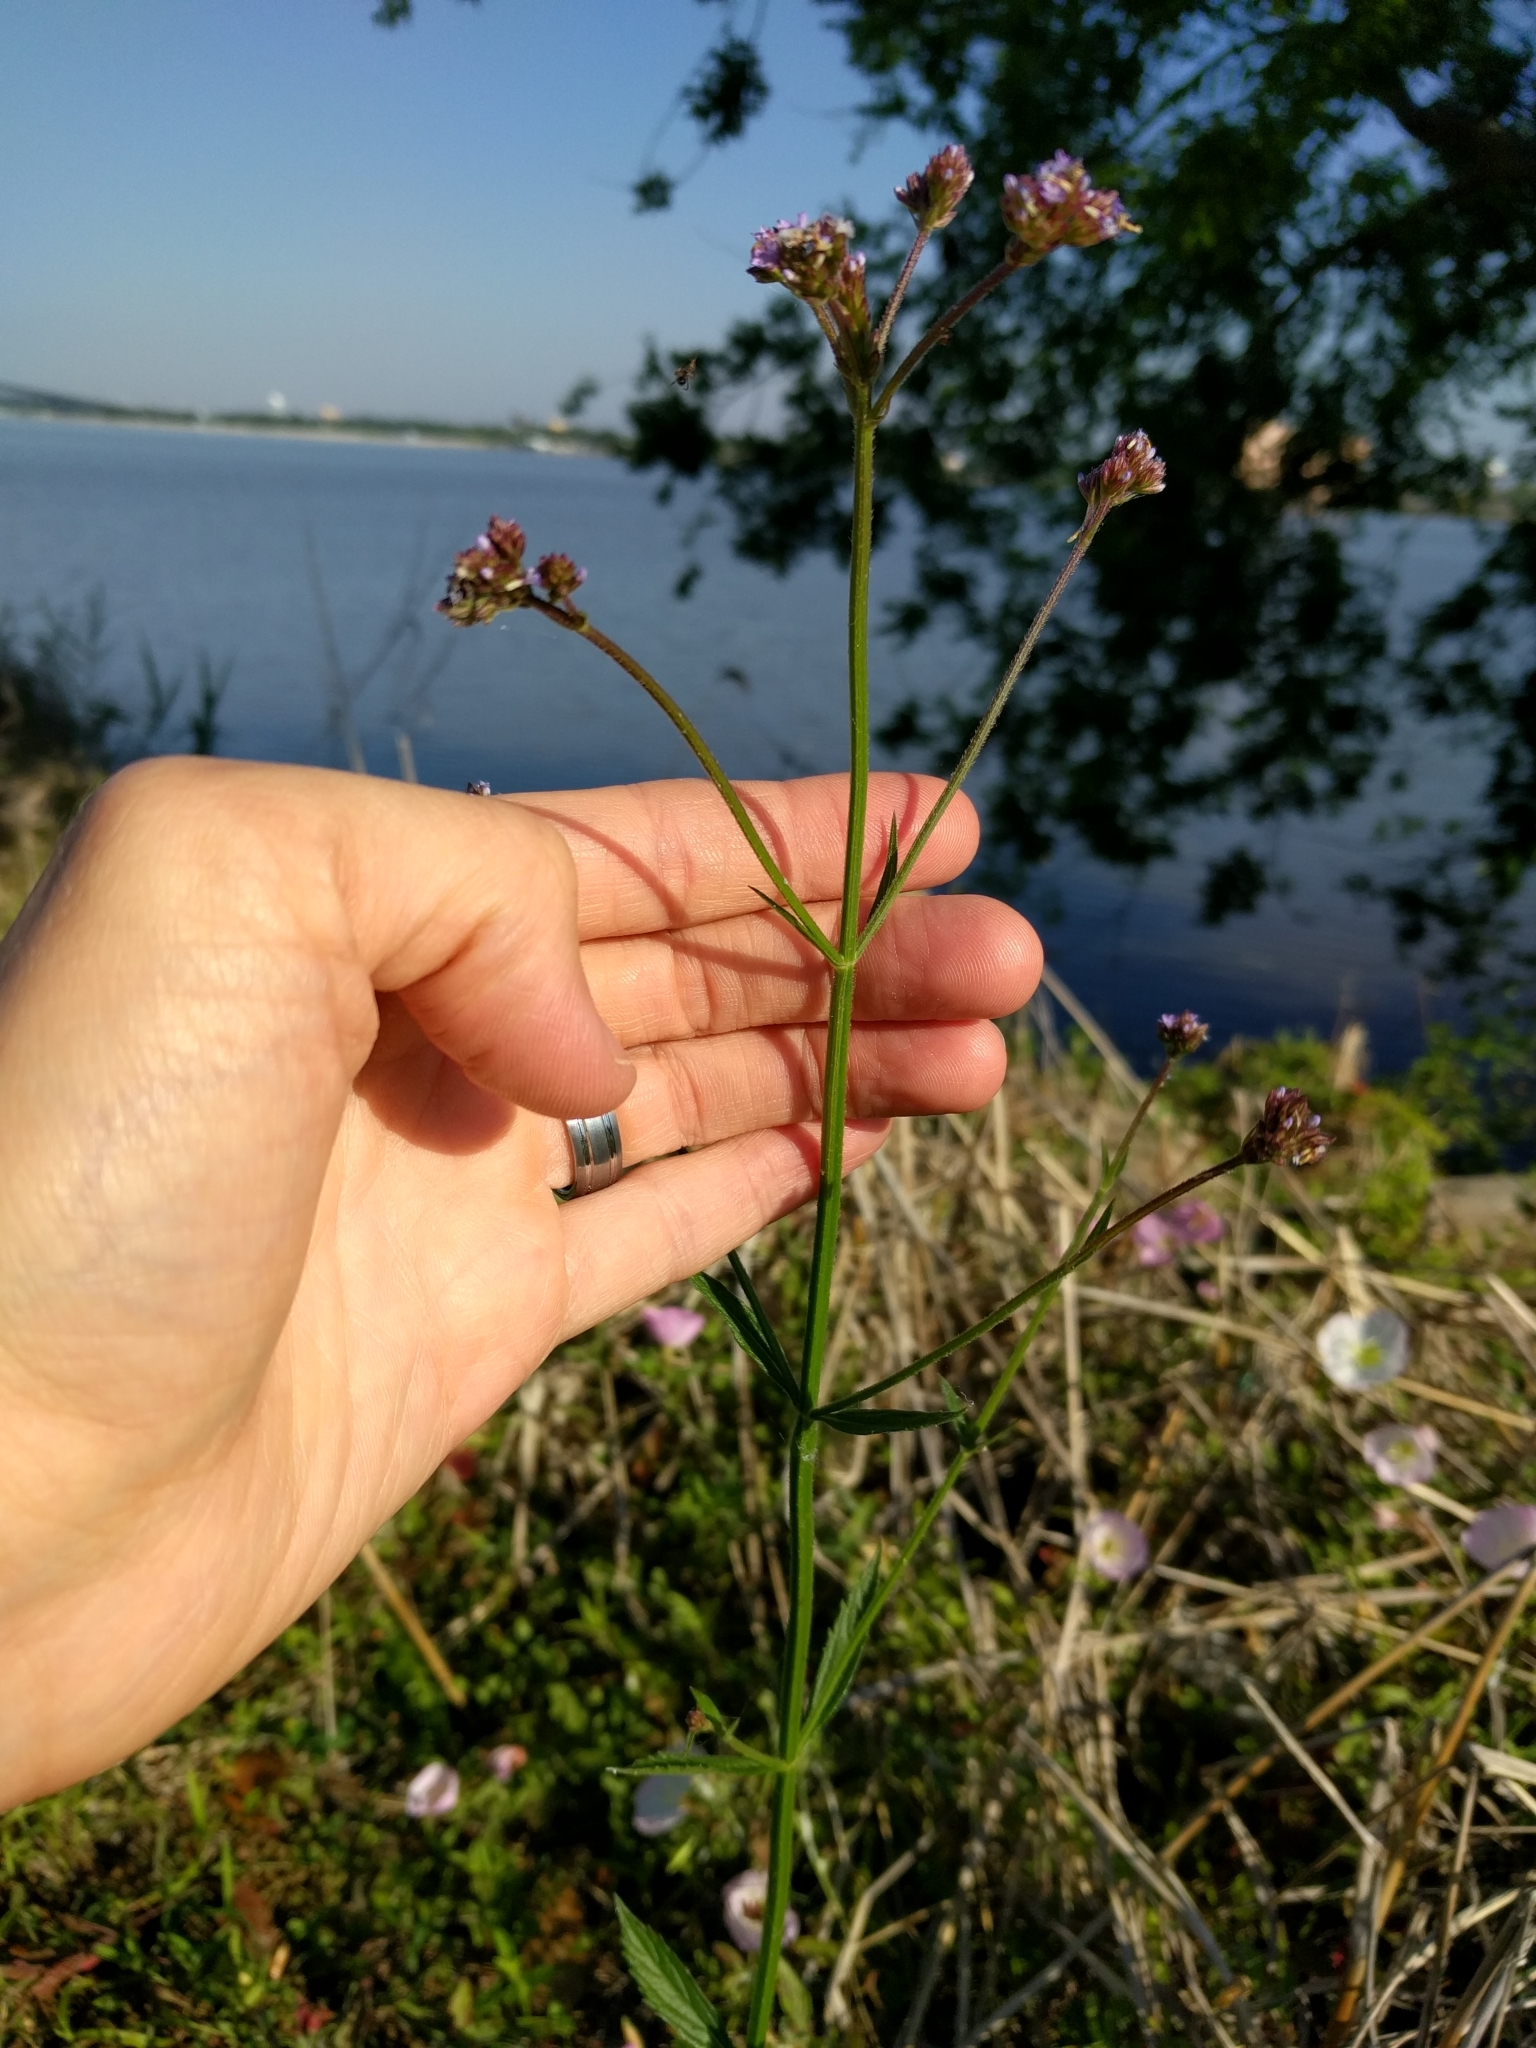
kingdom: Plantae
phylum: Tracheophyta
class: Magnoliopsida
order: Lamiales
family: Verbenaceae
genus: Verbena
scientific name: Verbena brasiliensis
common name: Brazilian vervain
